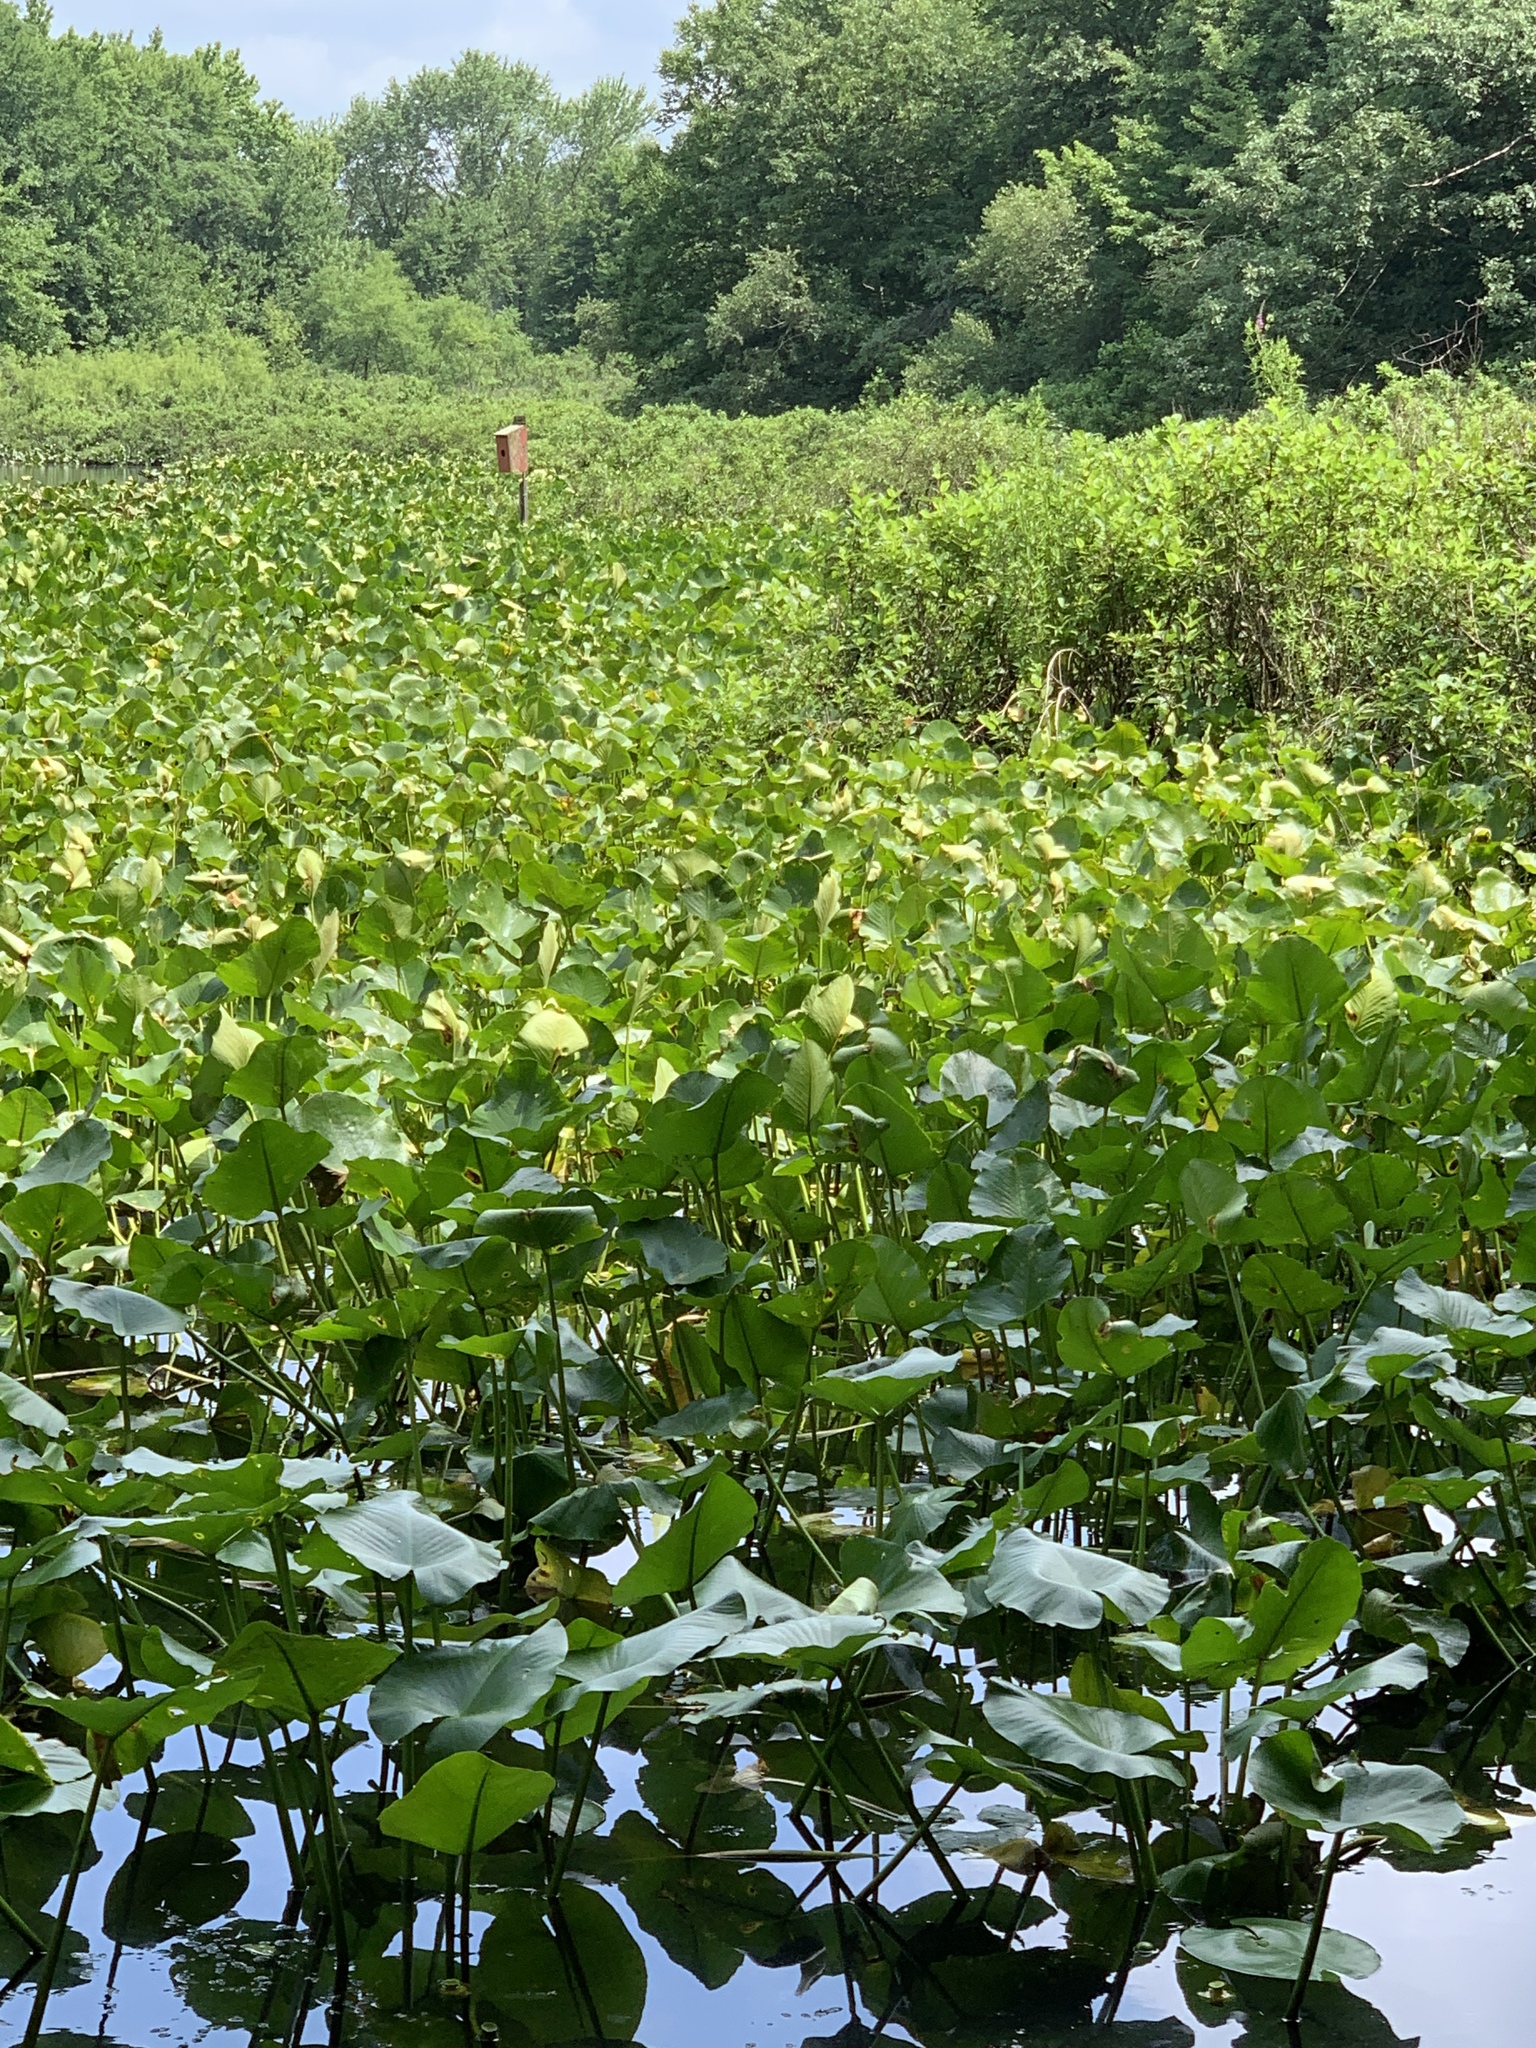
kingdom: Plantae
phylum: Tracheophyta
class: Magnoliopsida
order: Nymphaeales
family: Nymphaeaceae
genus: Nuphar
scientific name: Nuphar advena
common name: Spatter-dock
